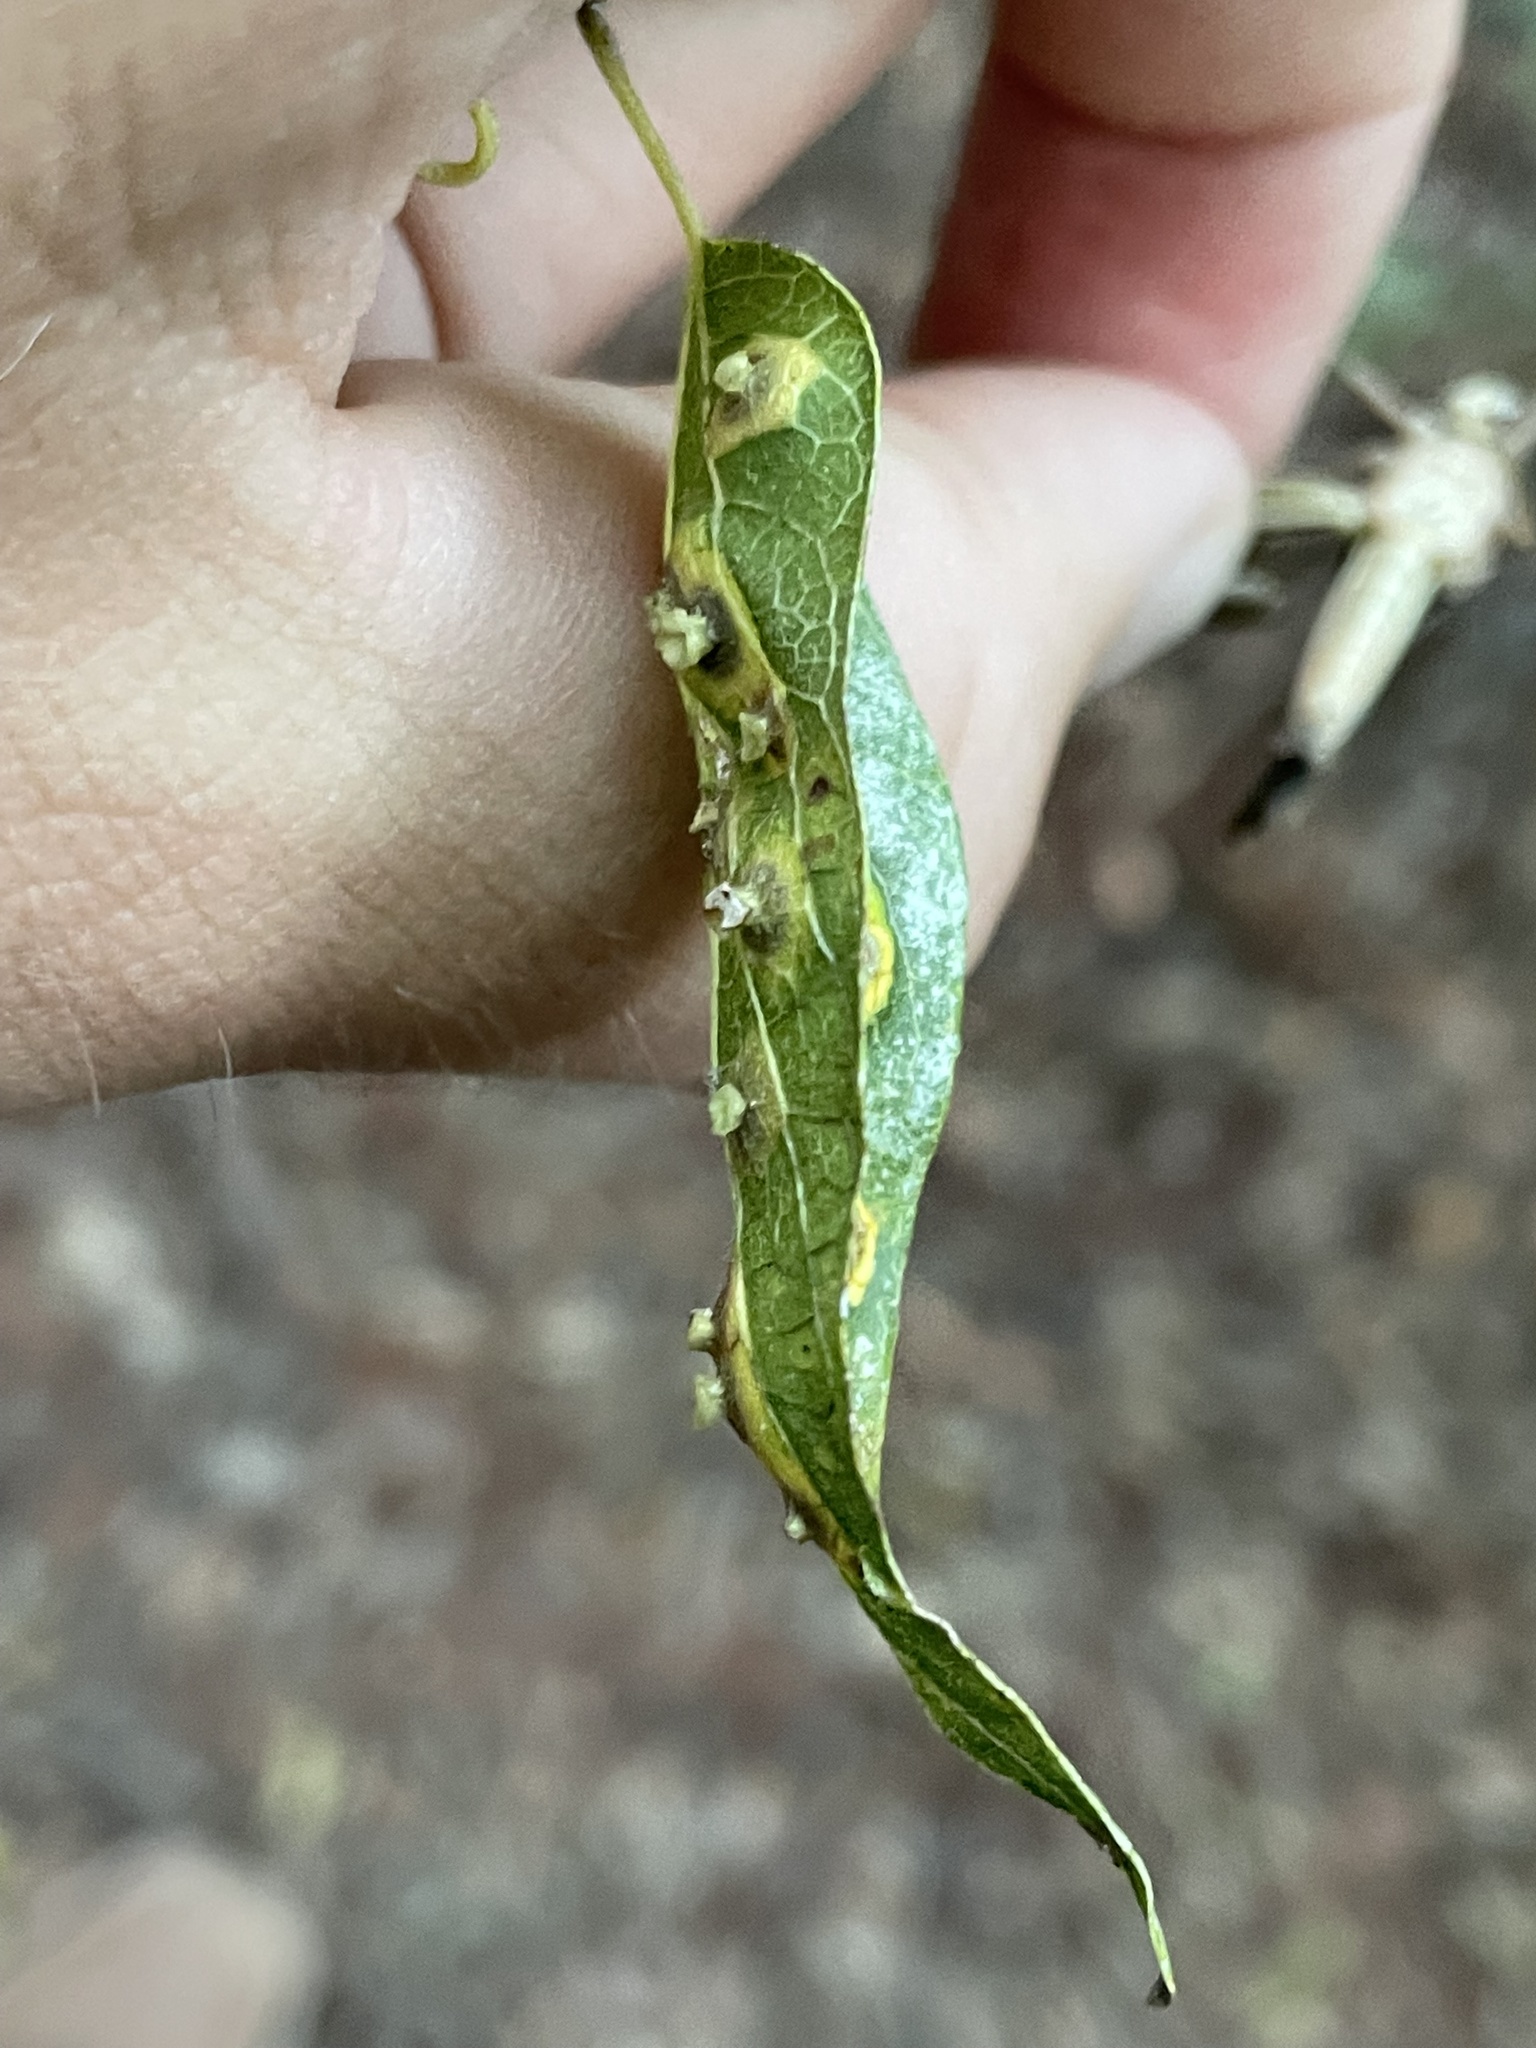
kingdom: Animalia
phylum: Arthropoda
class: Insecta
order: Hemiptera
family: Aphalaridae
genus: Pachypsylla
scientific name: Pachypsylla celtidisasterisca
